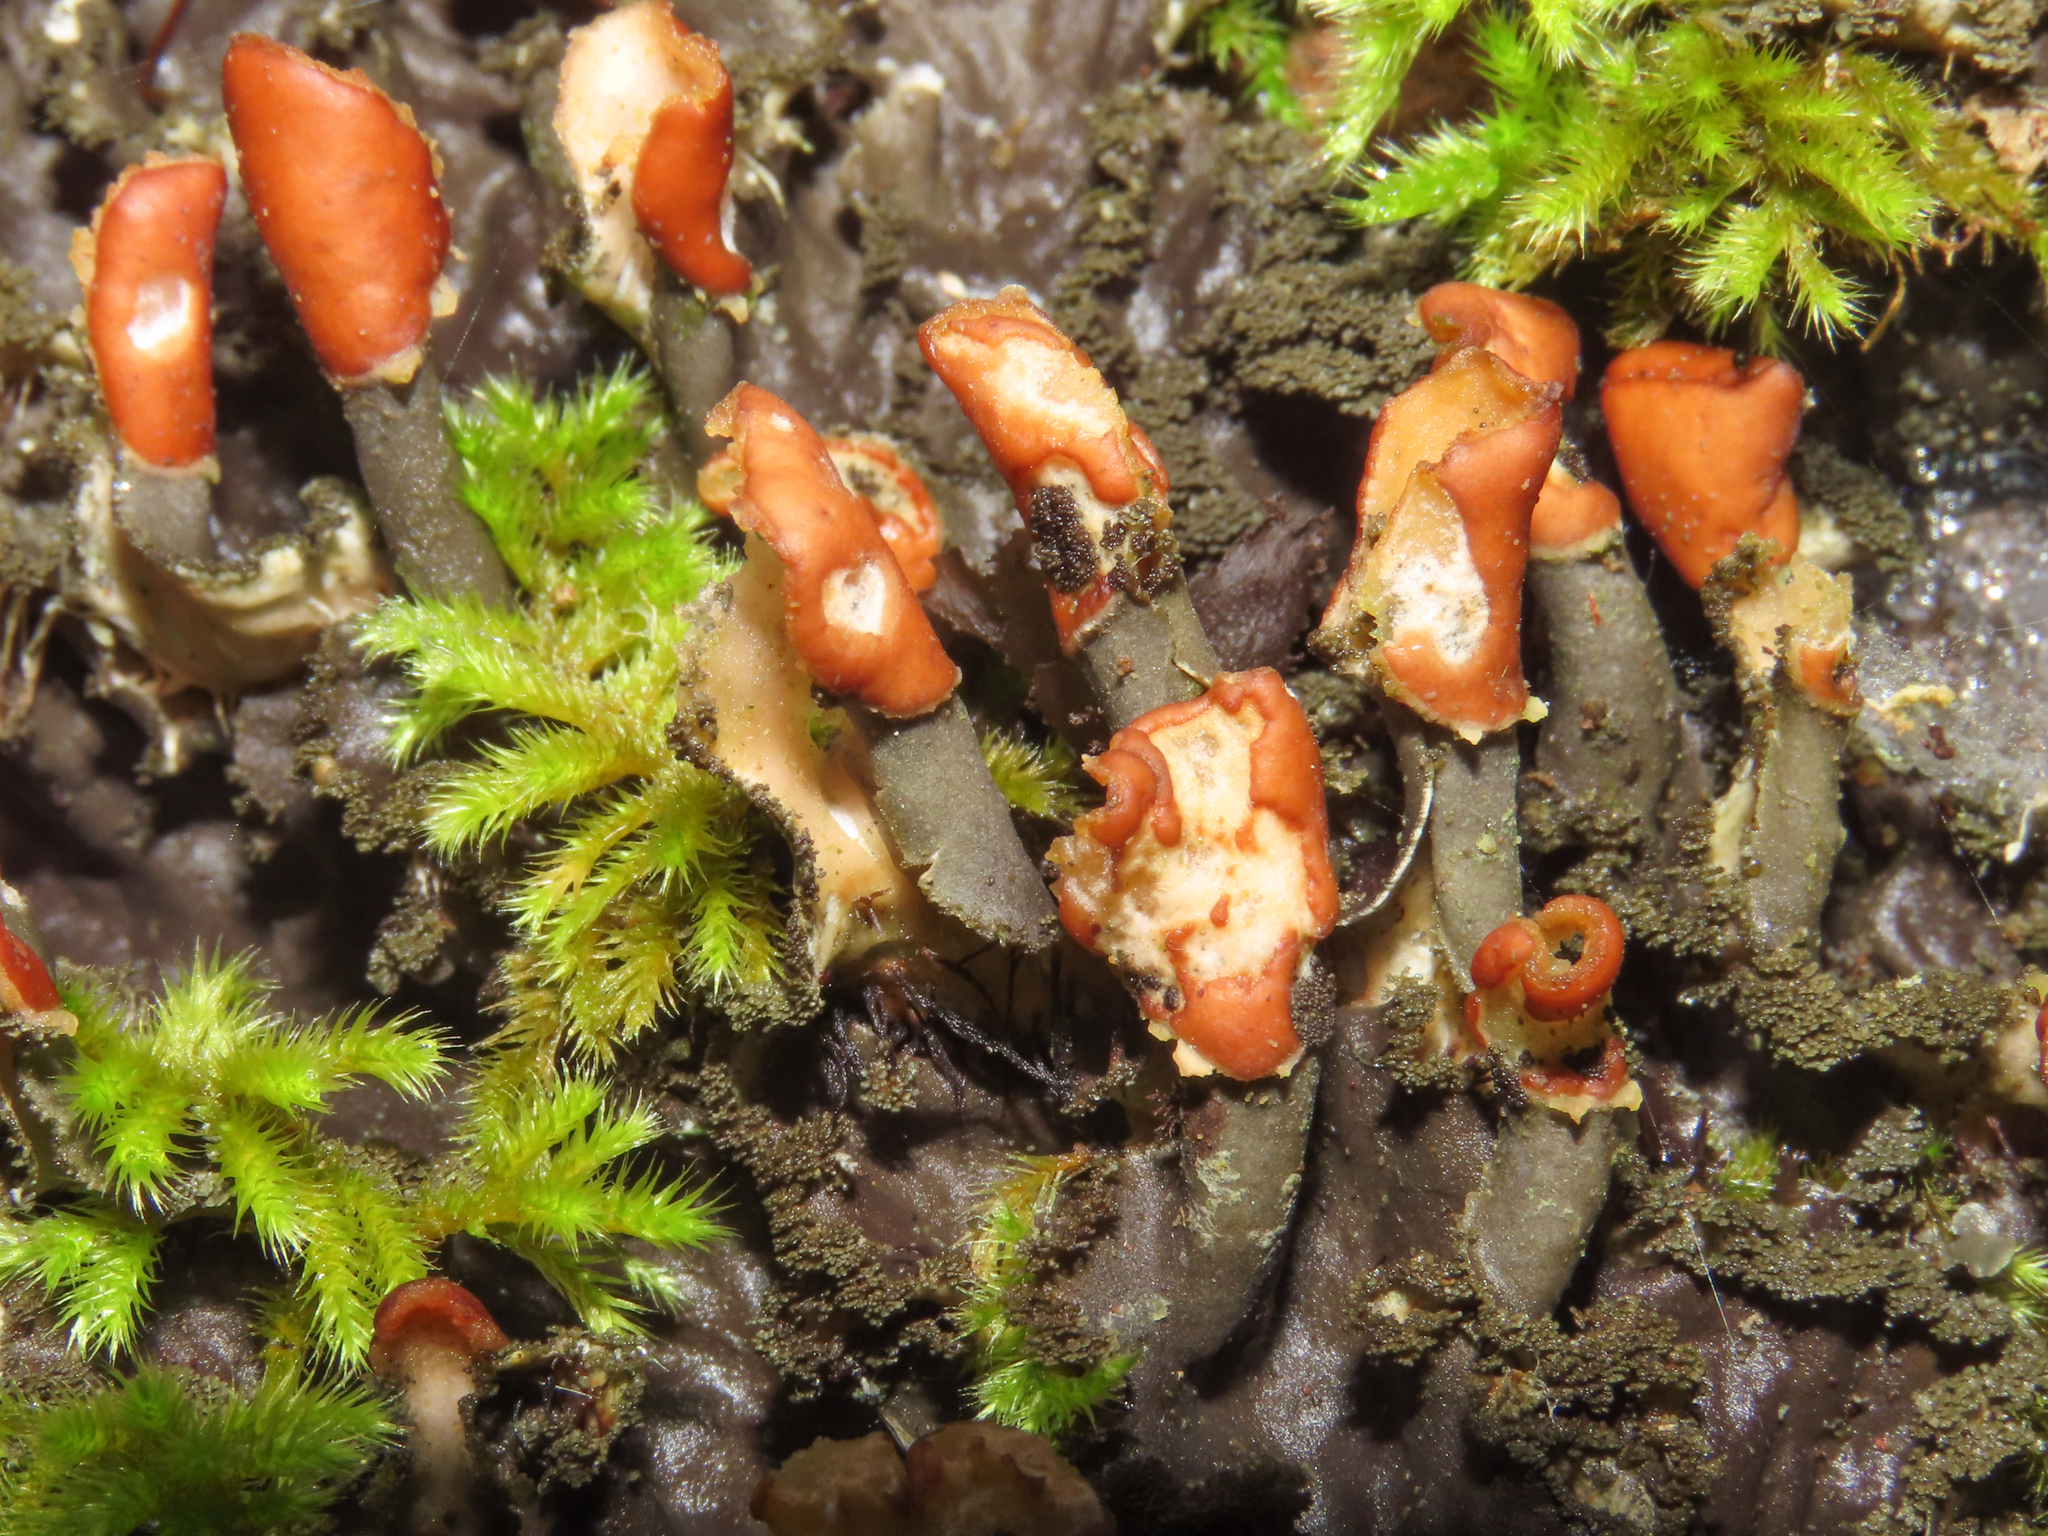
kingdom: Fungi
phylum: Ascomycota
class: Lecanoromycetes
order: Peltigerales
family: Peltigeraceae
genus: Peltigera
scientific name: Peltigera praetextata
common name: Scaly dog-lichen
